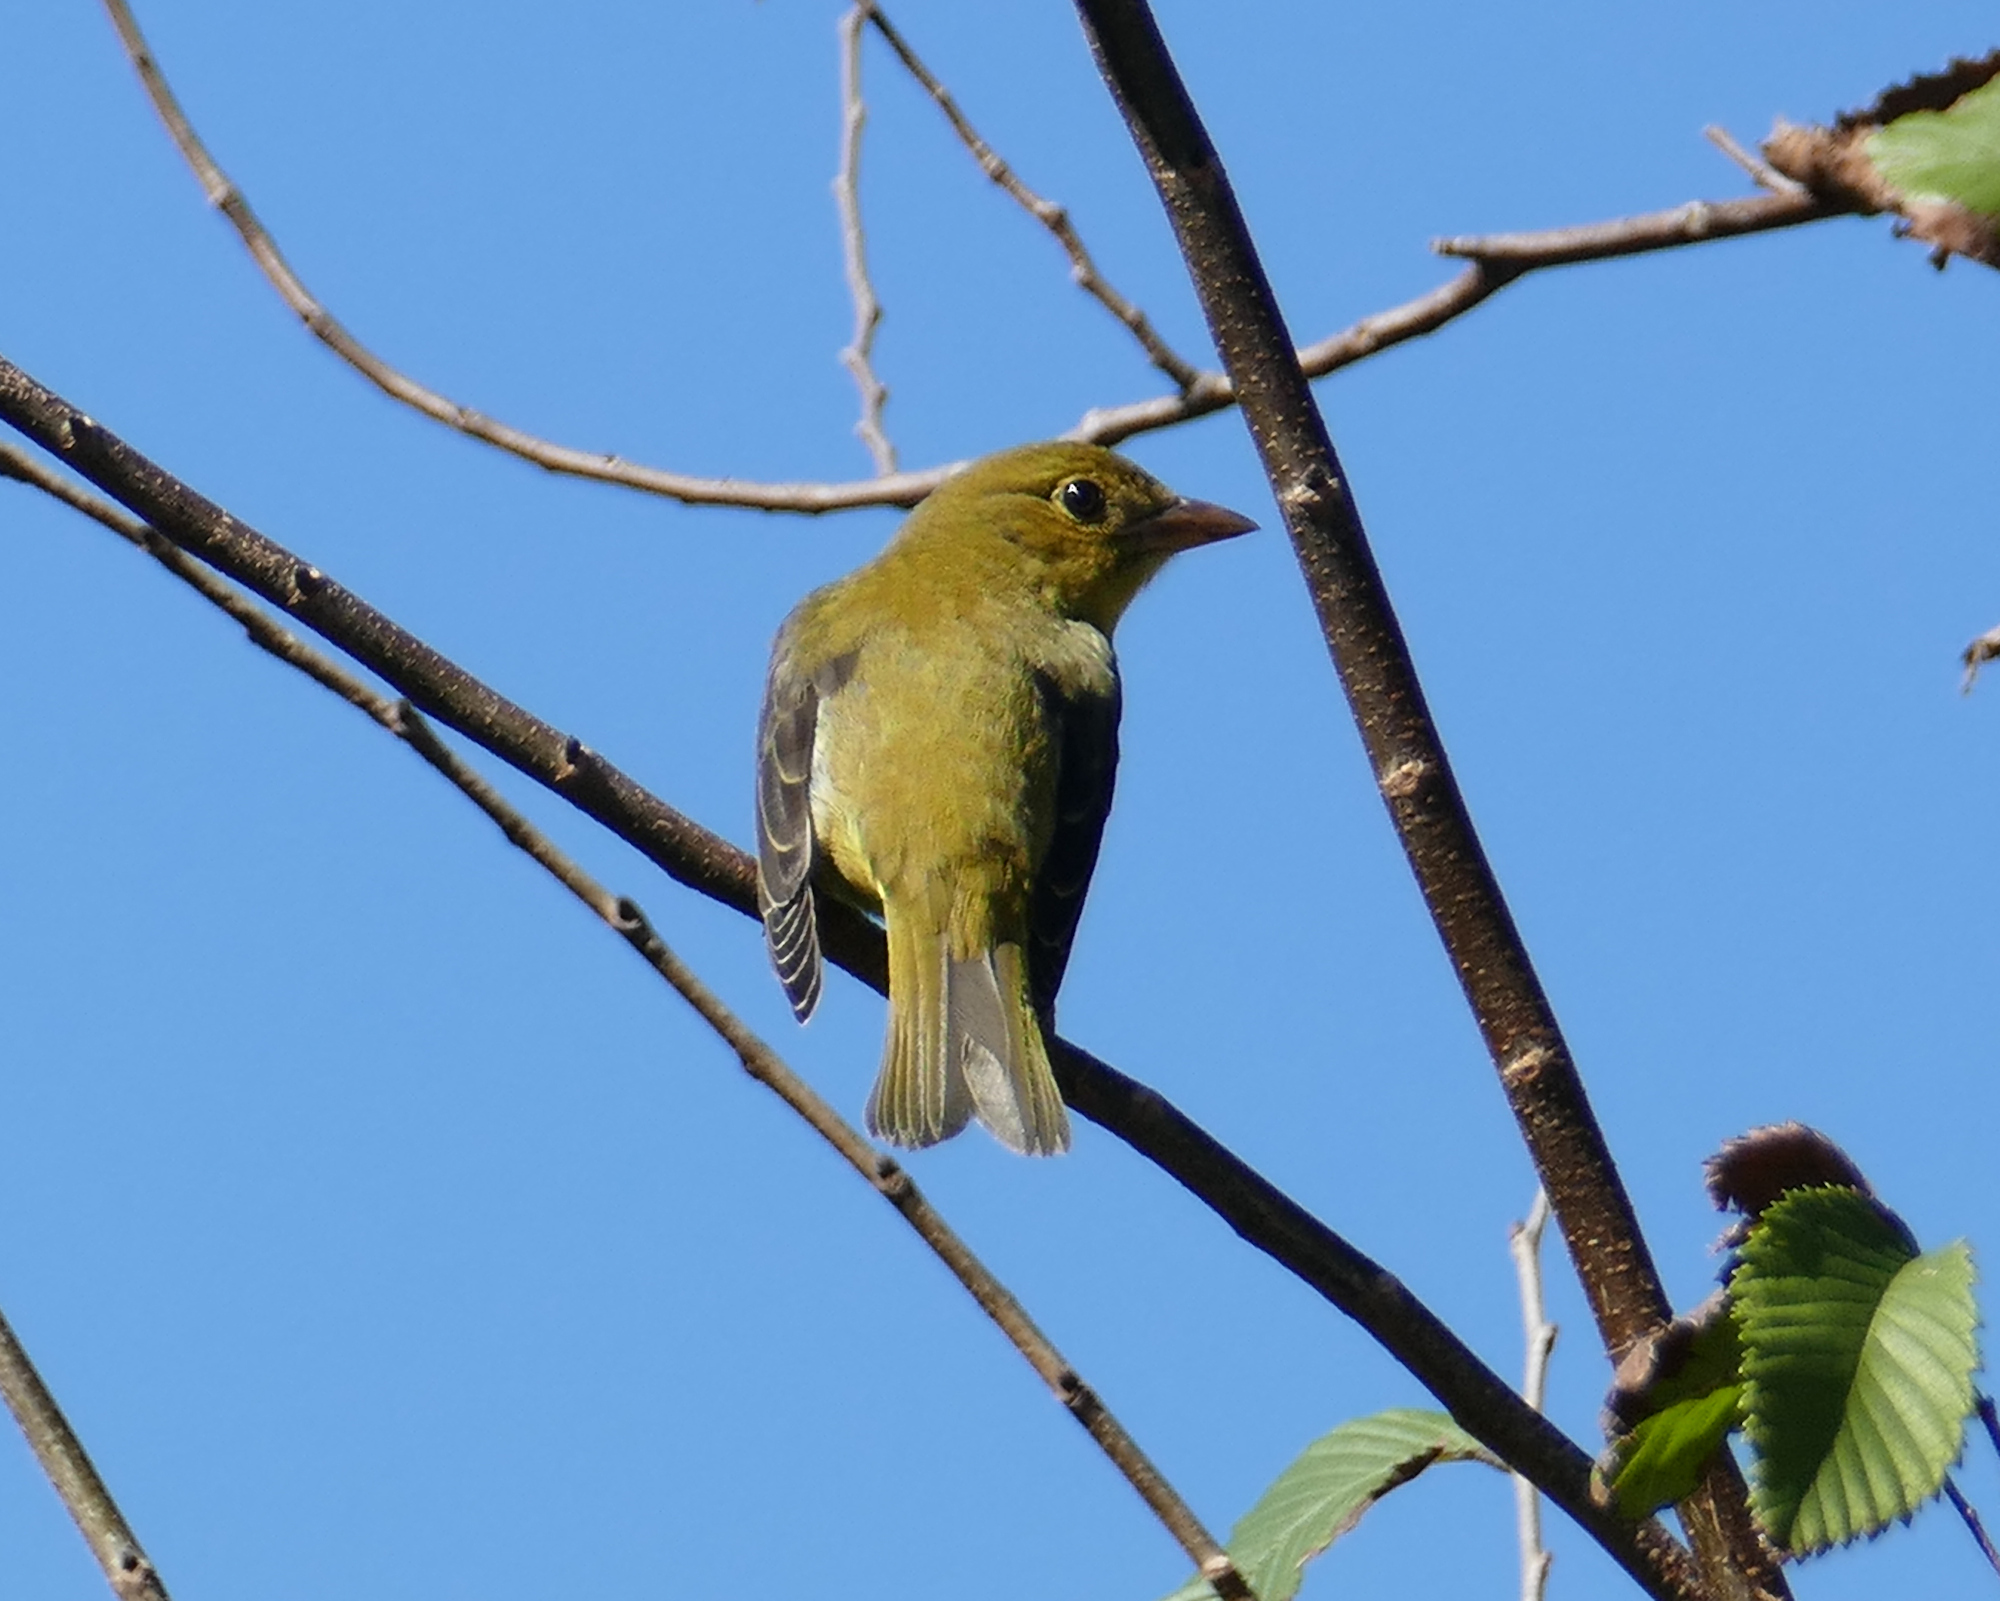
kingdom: Animalia
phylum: Chordata
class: Aves
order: Passeriformes
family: Cardinalidae
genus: Piranga
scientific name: Piranga olivacea
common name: Scarlet tanager
